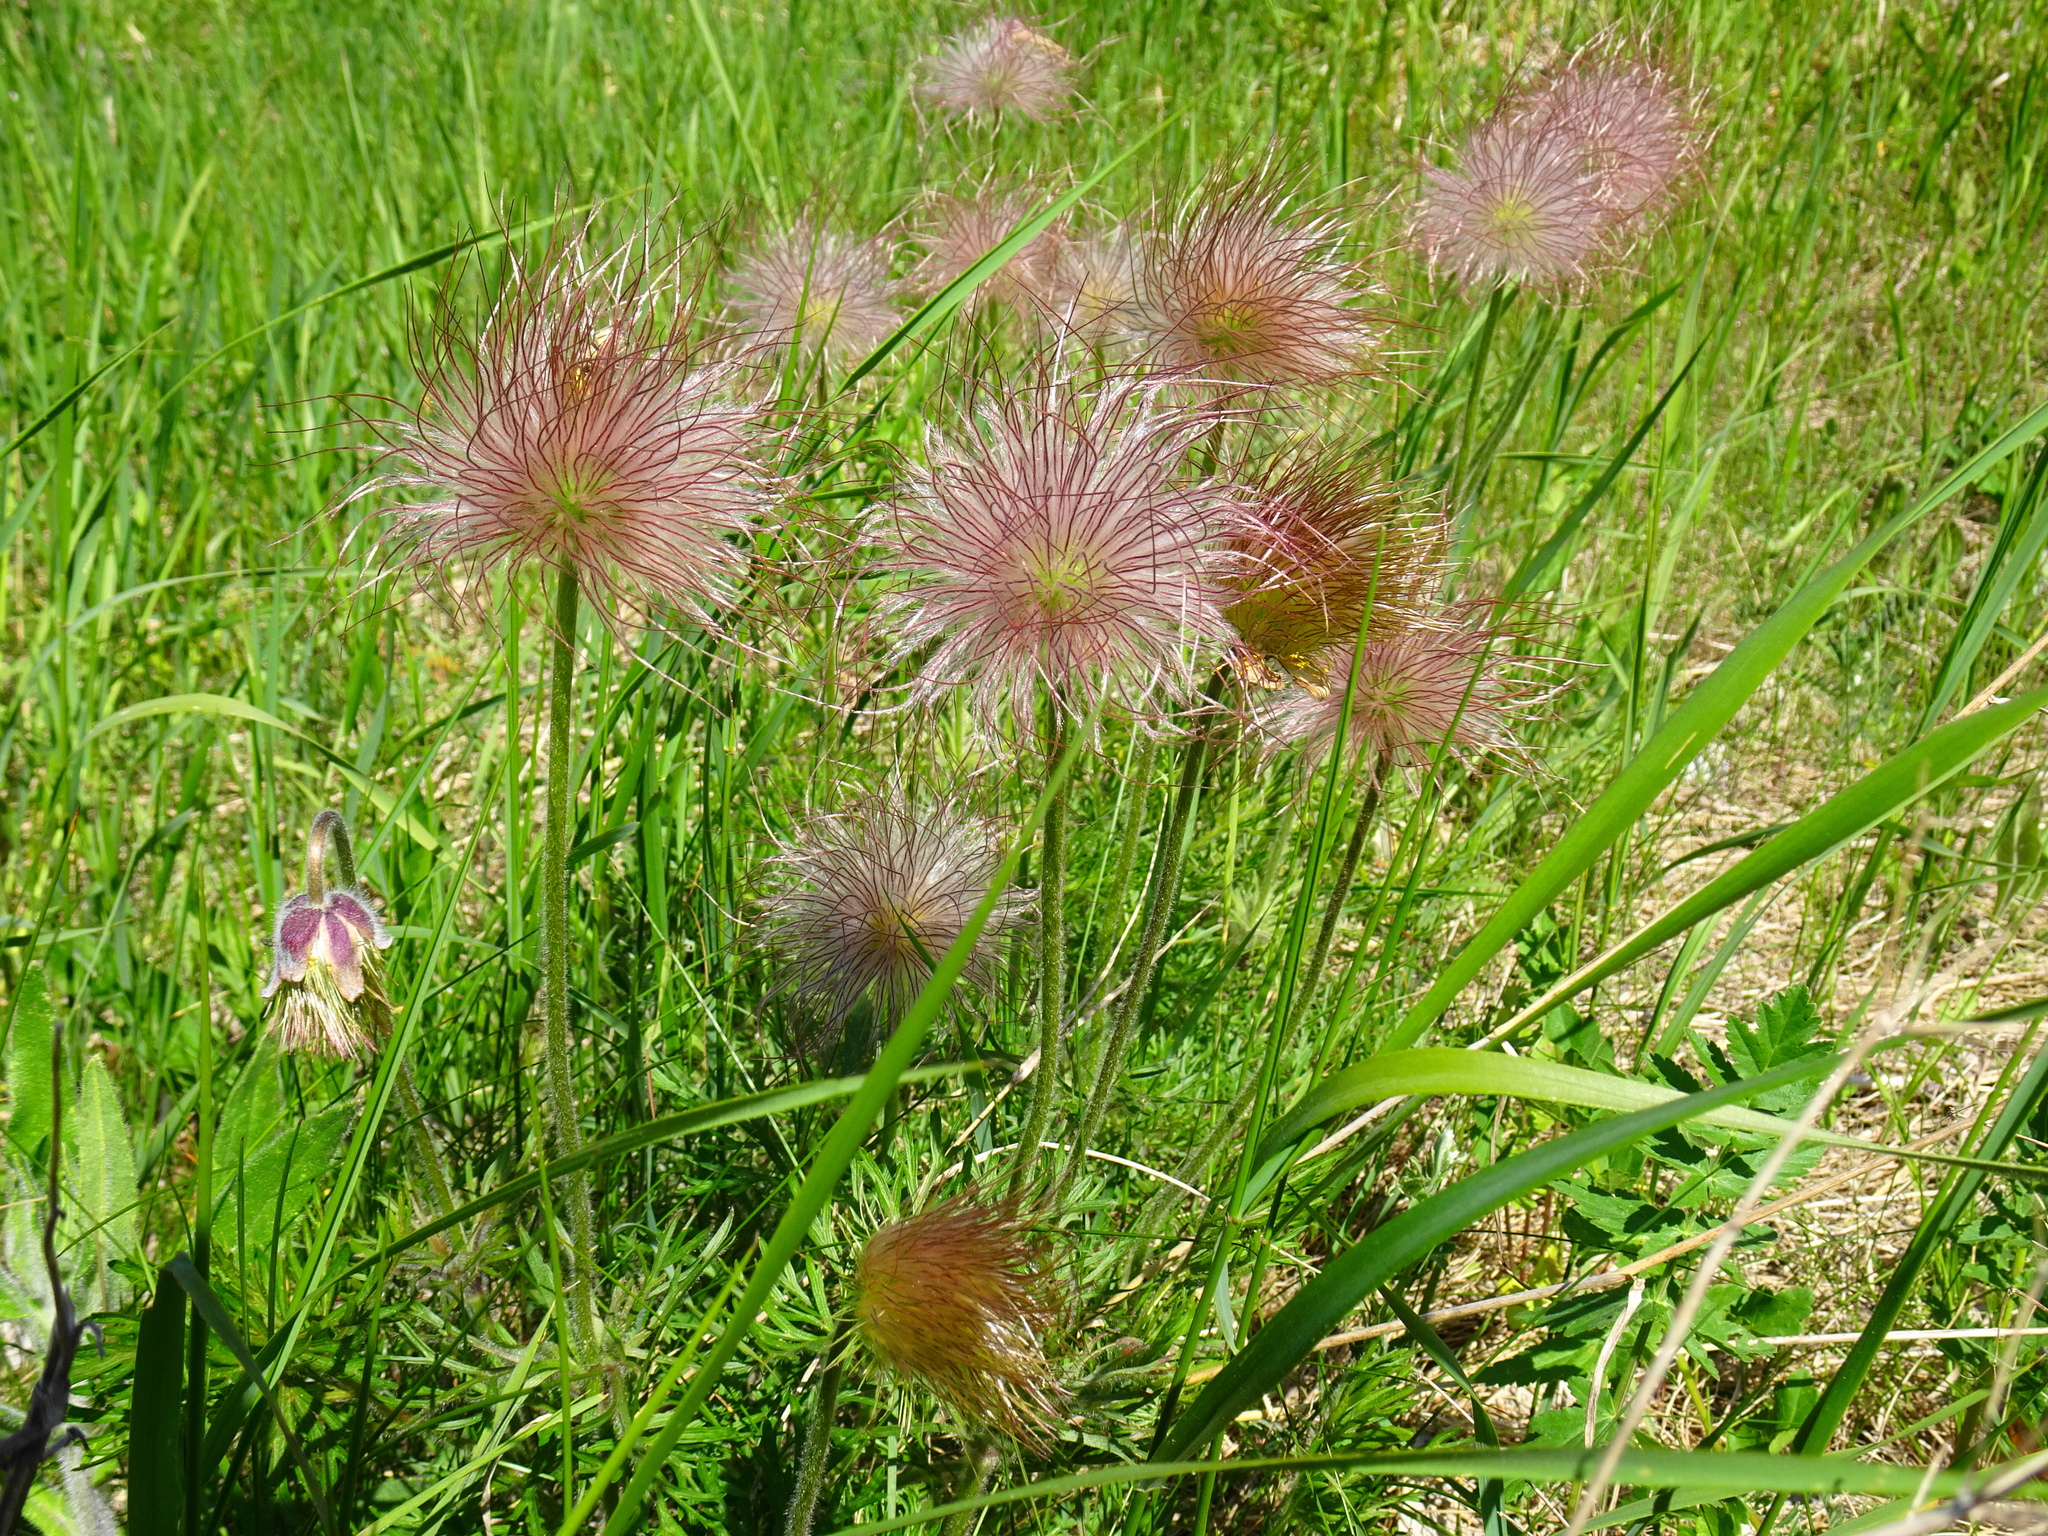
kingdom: Plantae
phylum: Tracheophyta
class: Magnoliopsida
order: Ranunculales
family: Ranunculaceae
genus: Pulsatilla
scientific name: Pulsatilla pratensis
